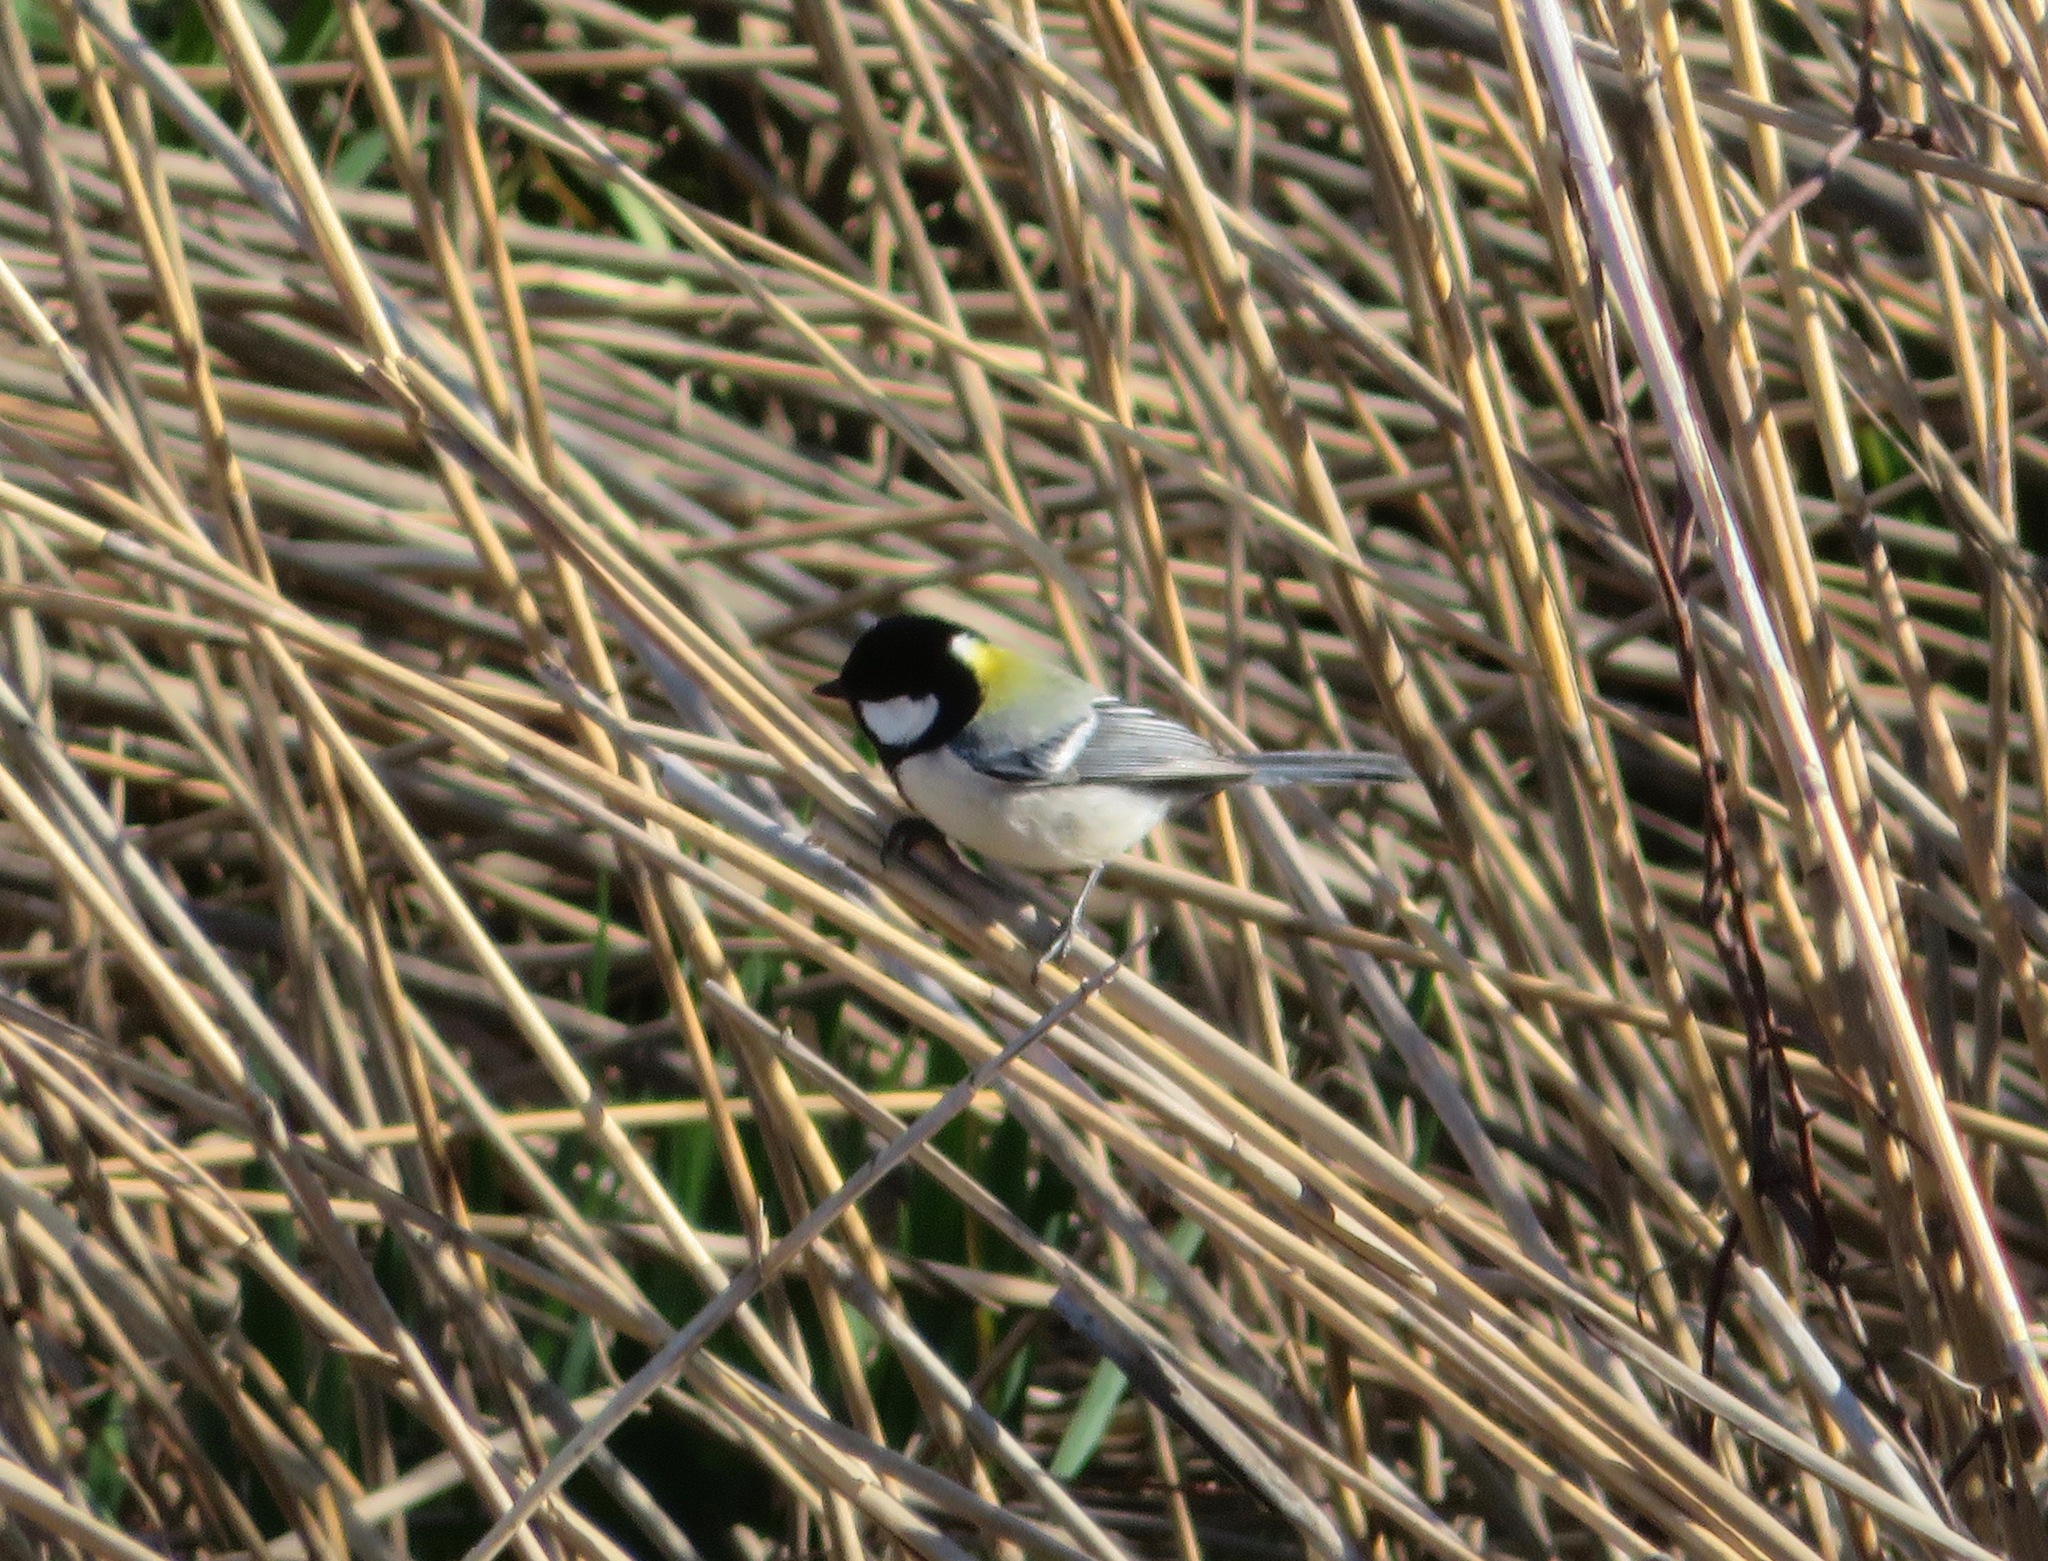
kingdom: Animalia
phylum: Chordata
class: Aves
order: Passeriformes
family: Paridae
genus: Parus
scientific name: Parus minor
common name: Japanese tit
